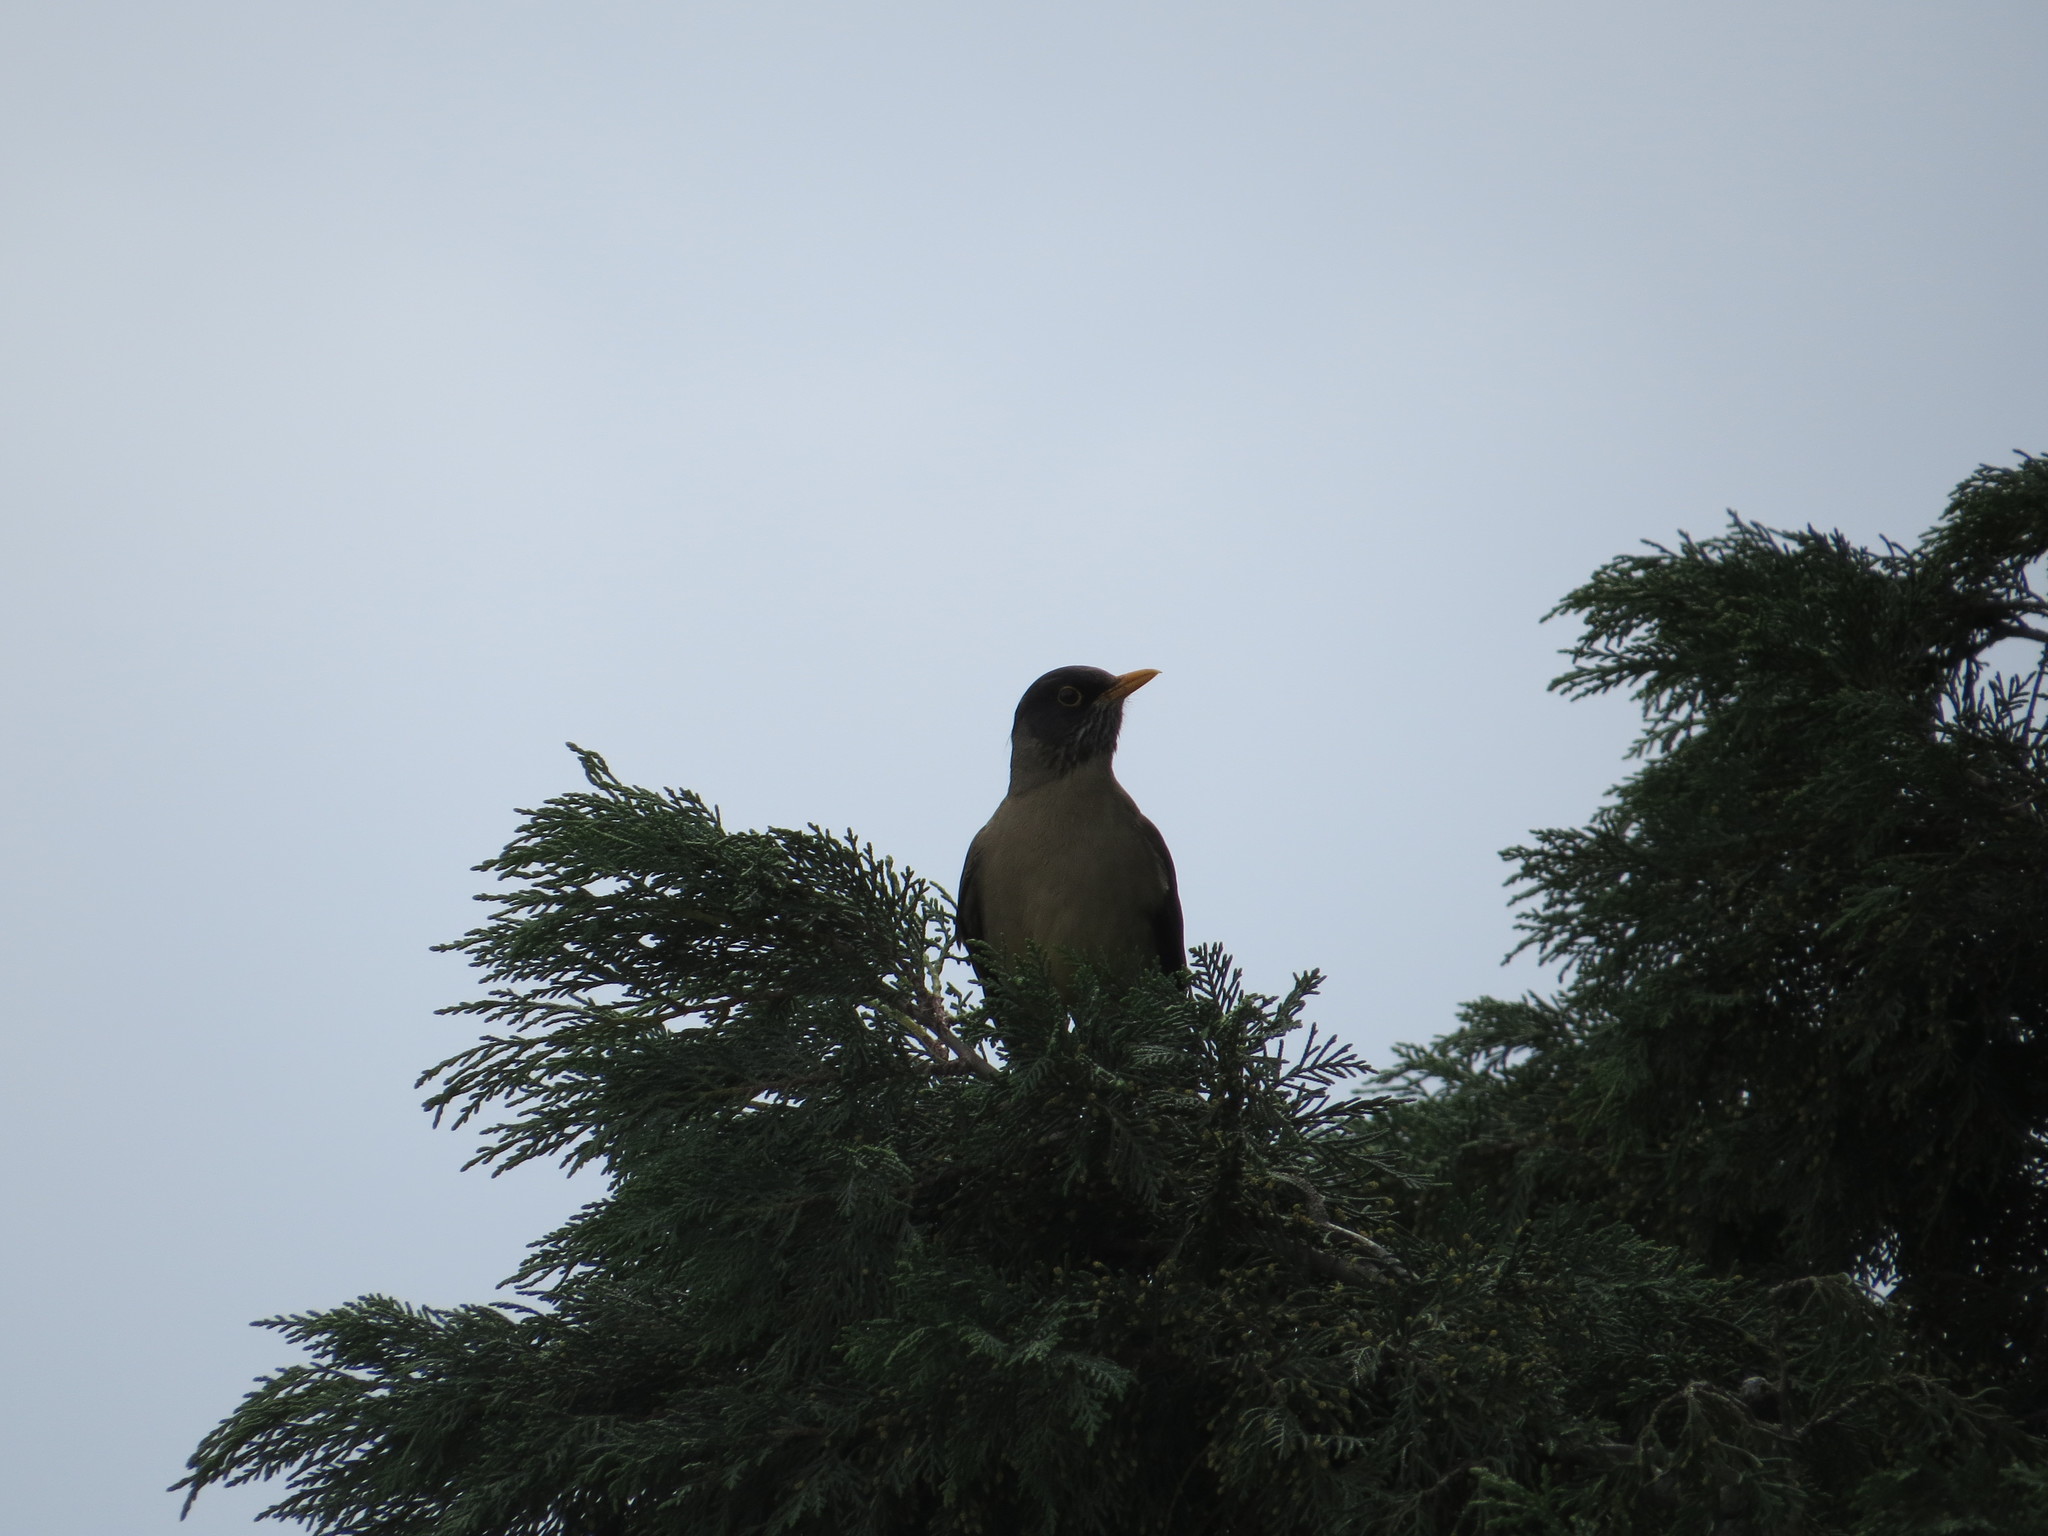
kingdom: Animalia
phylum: Chordata
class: Aves
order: Passeriformes
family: Turdidae
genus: Turdus
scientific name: Turdus falcklandii
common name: Austral thrush
